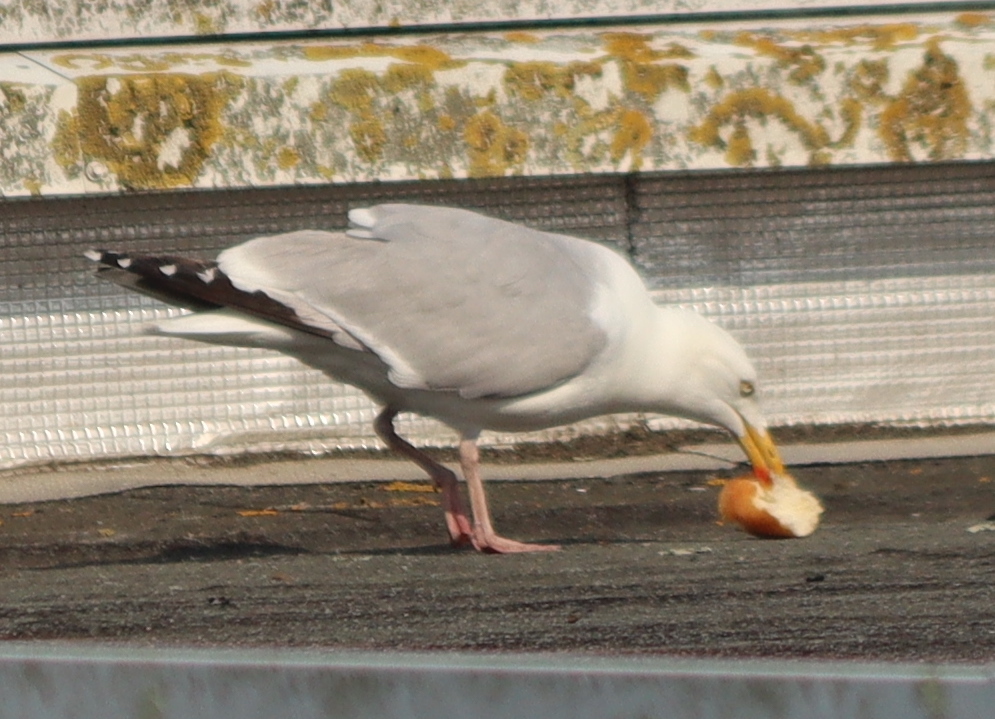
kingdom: Animalia
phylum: Chordata
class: Aves
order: Charadriiformes
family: Laridae
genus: Larus
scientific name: Larus argentatus
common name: Herring gull
